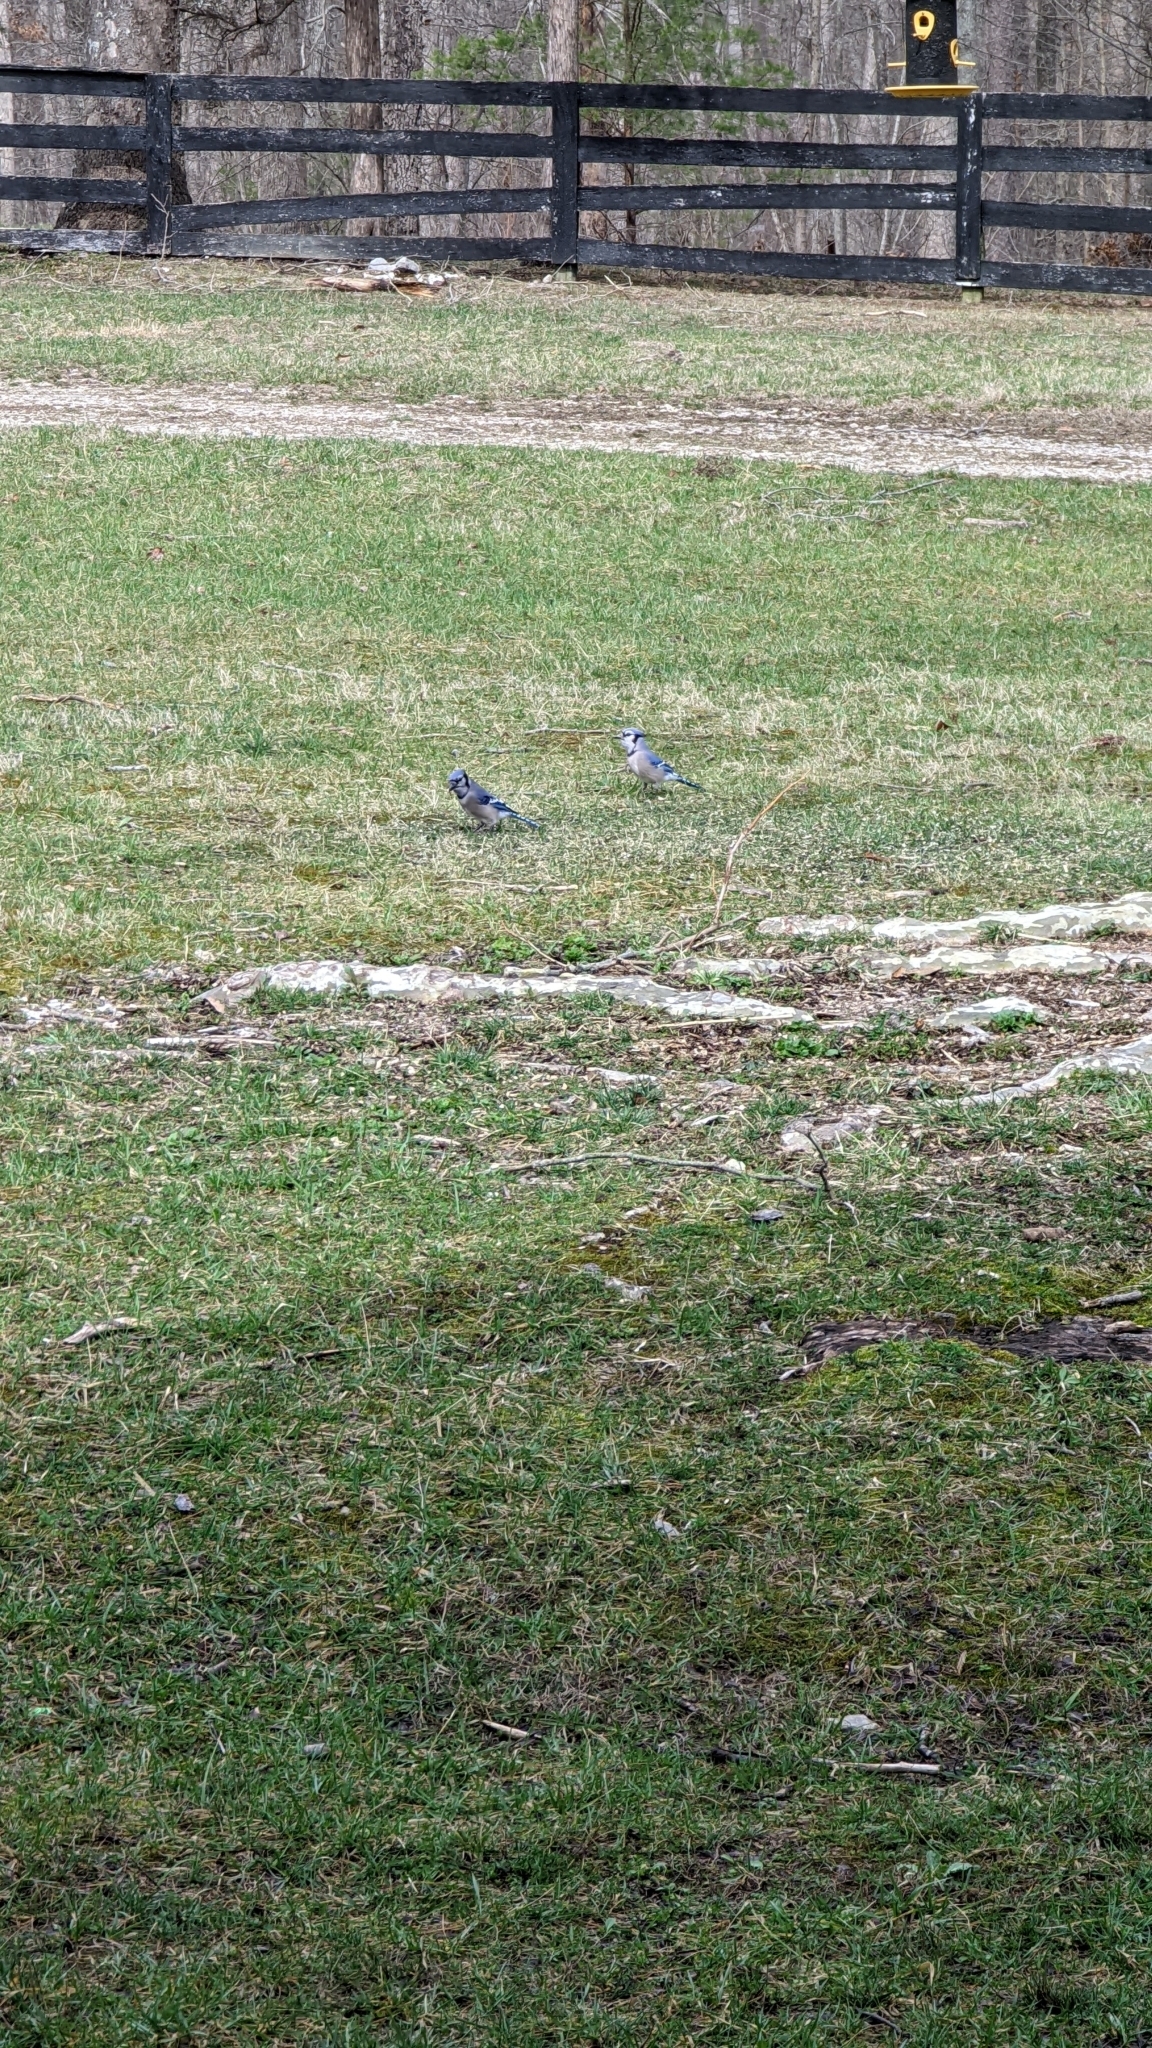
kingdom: Animalia
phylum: Chordata
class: Aves
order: Passeriformes
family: Corvidae
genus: Cyanocitta
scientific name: Cyanocitta cristata
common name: Blue jay
